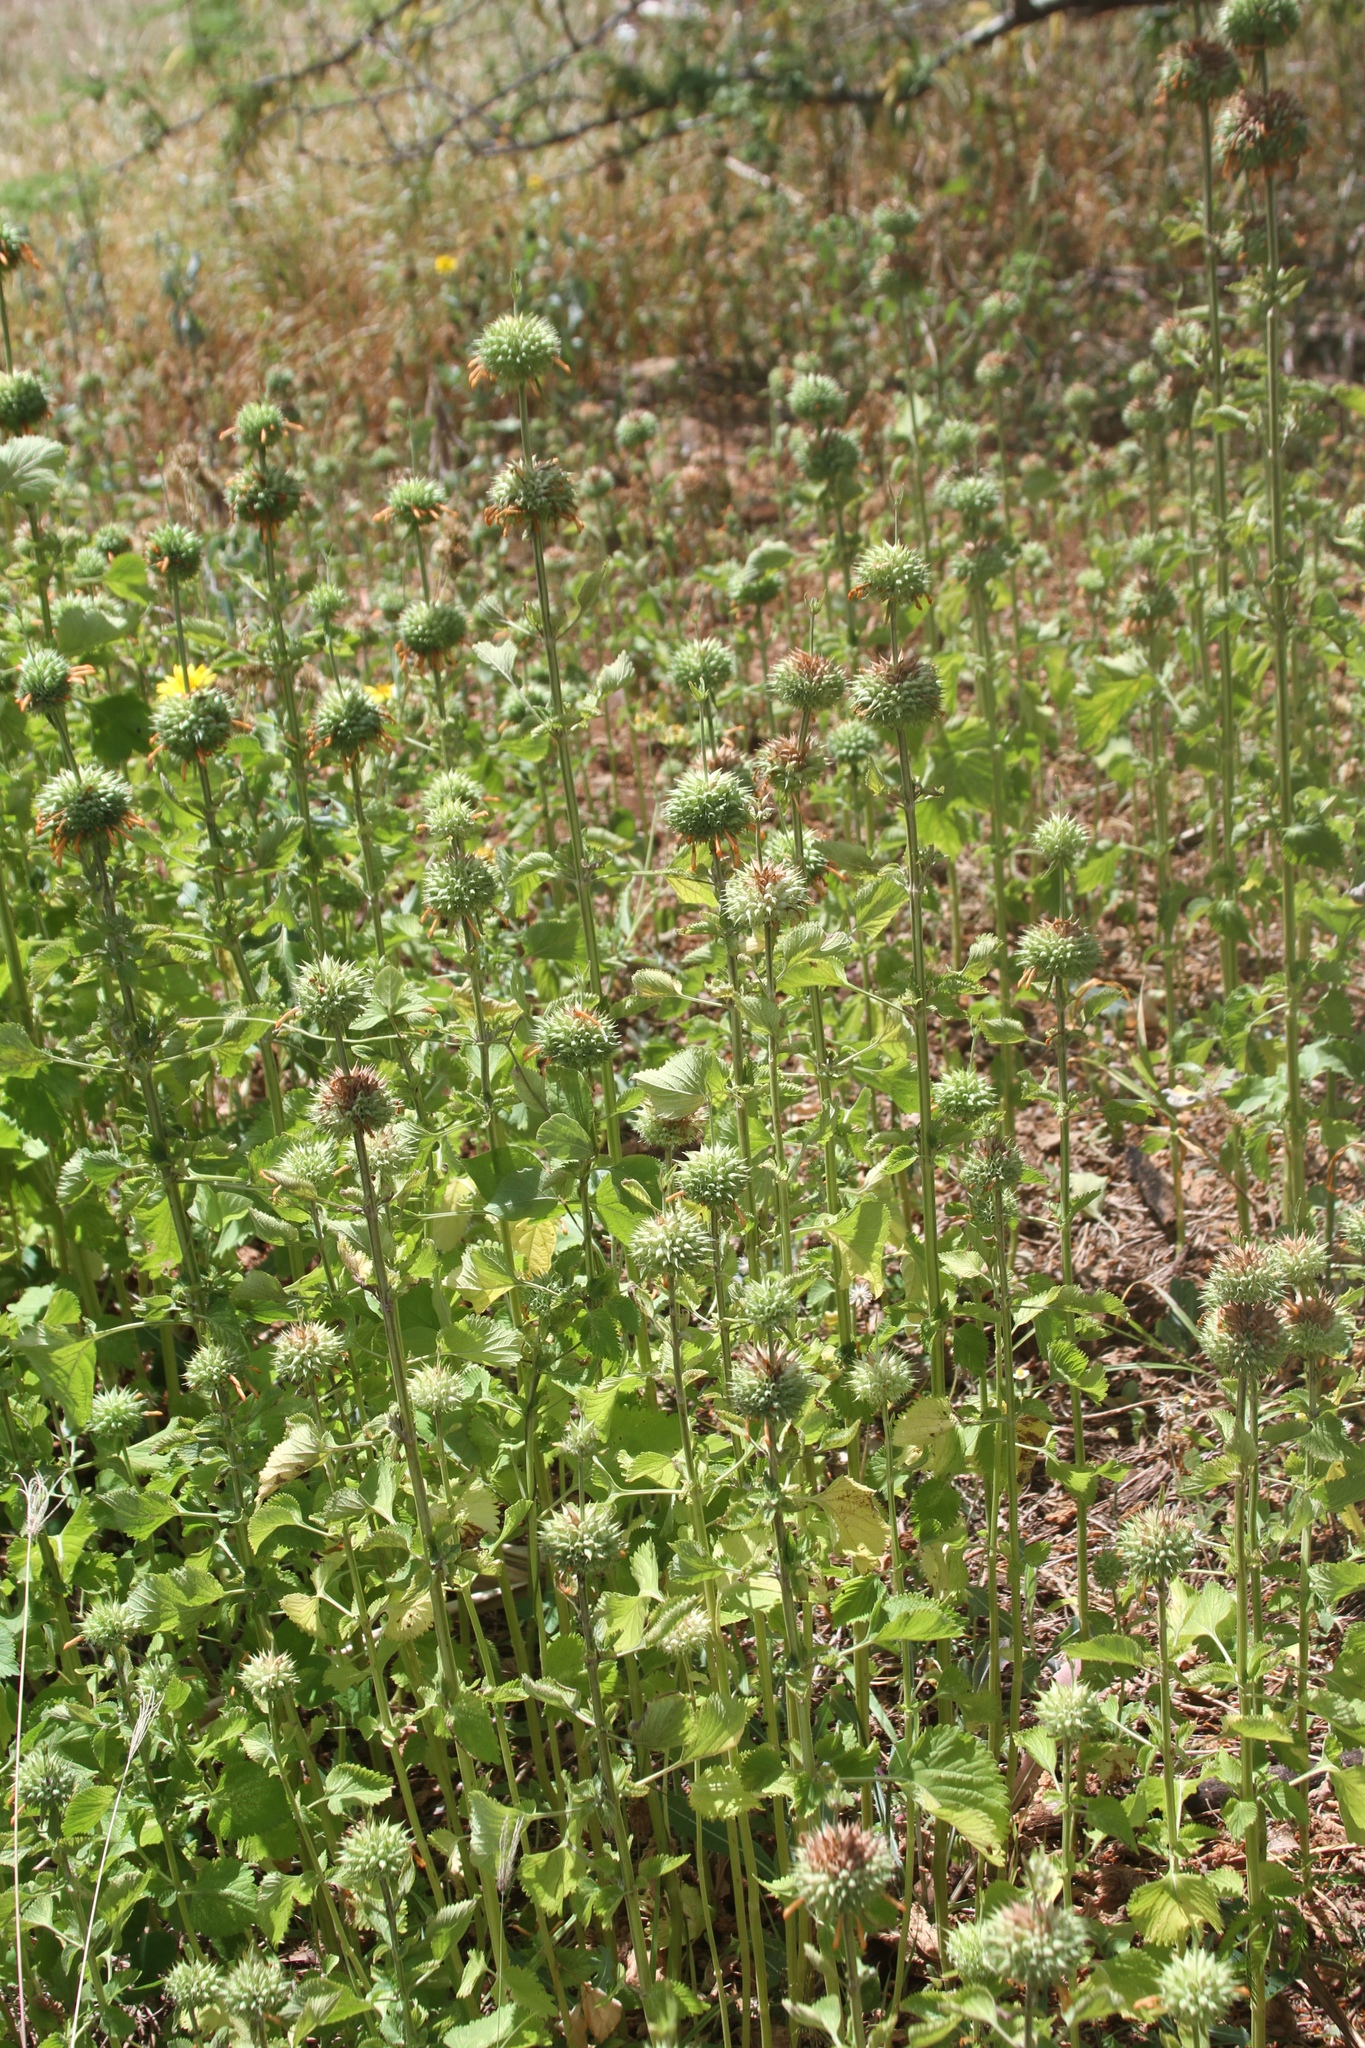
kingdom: Plantae
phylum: Tracheophyta
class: Magnoliopsida
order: Lamiales
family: Lamiaceae
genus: Leonotis
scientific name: Leonotis nepetifolia
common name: Christmas candlestick
